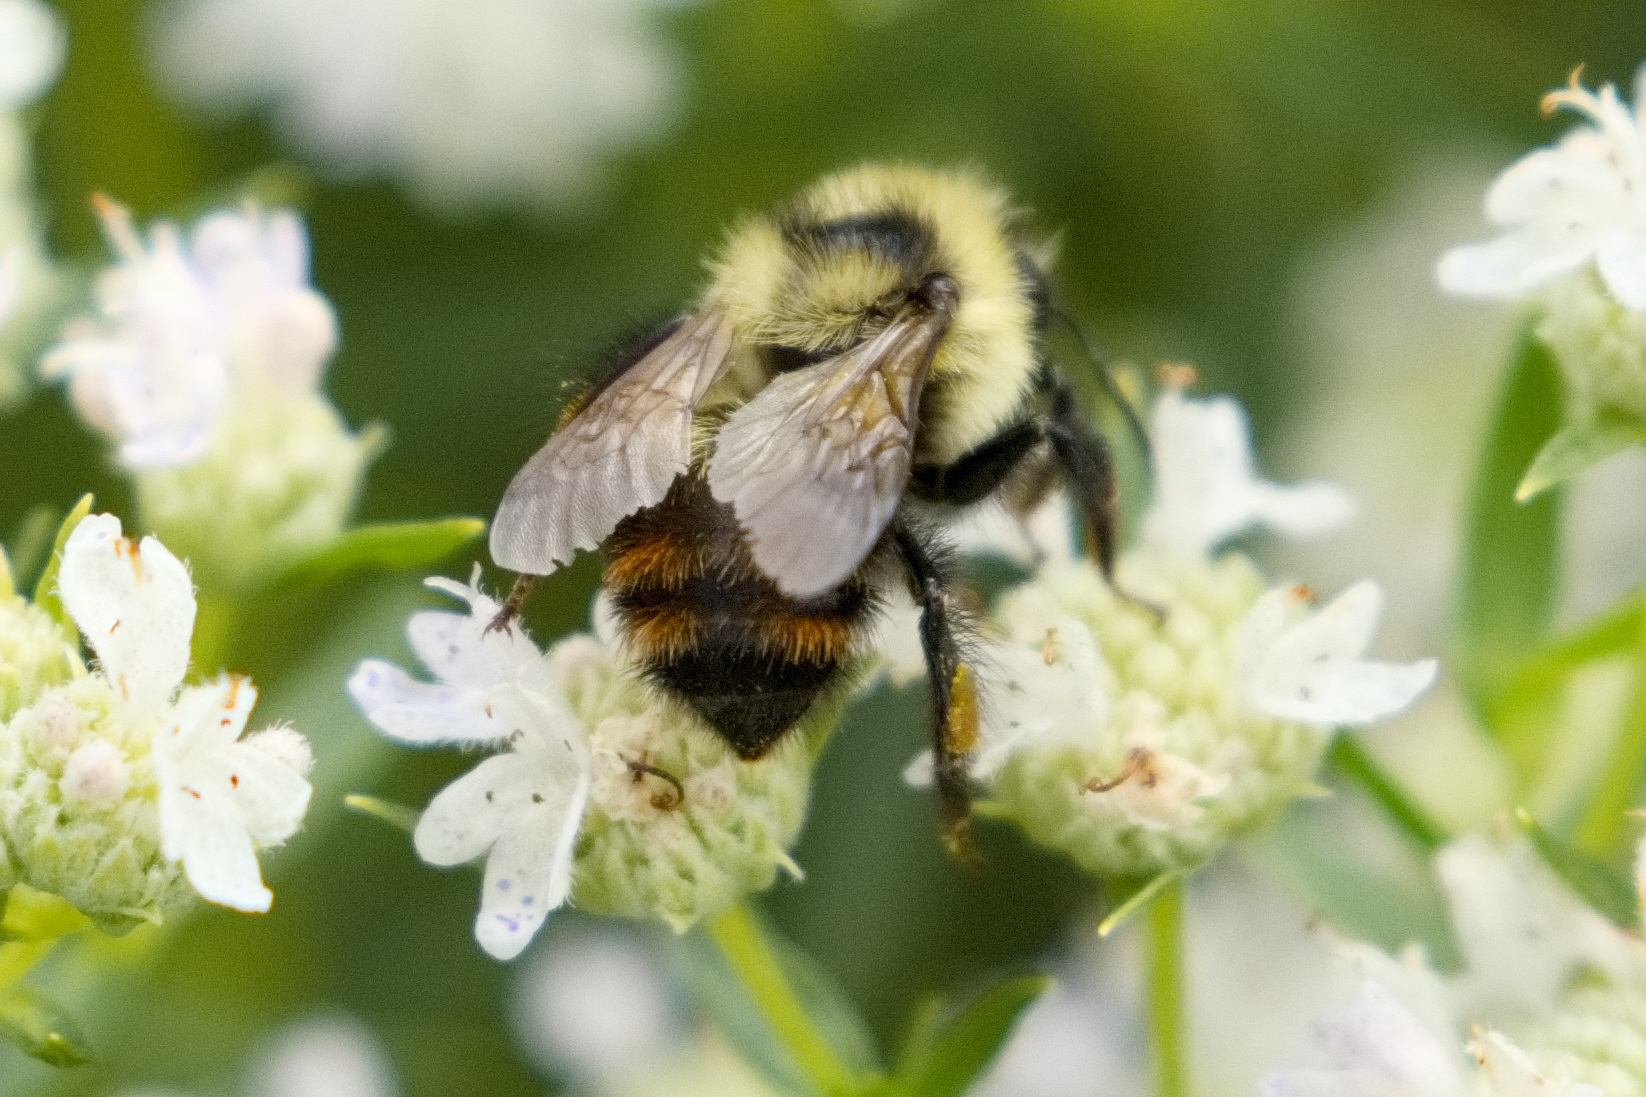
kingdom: Animalia
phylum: Arthropoda
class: Insecta
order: Hymenoptera
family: Apidae
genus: Bombus
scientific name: Bombus rufocinctus
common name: Red-belted bumble bee
